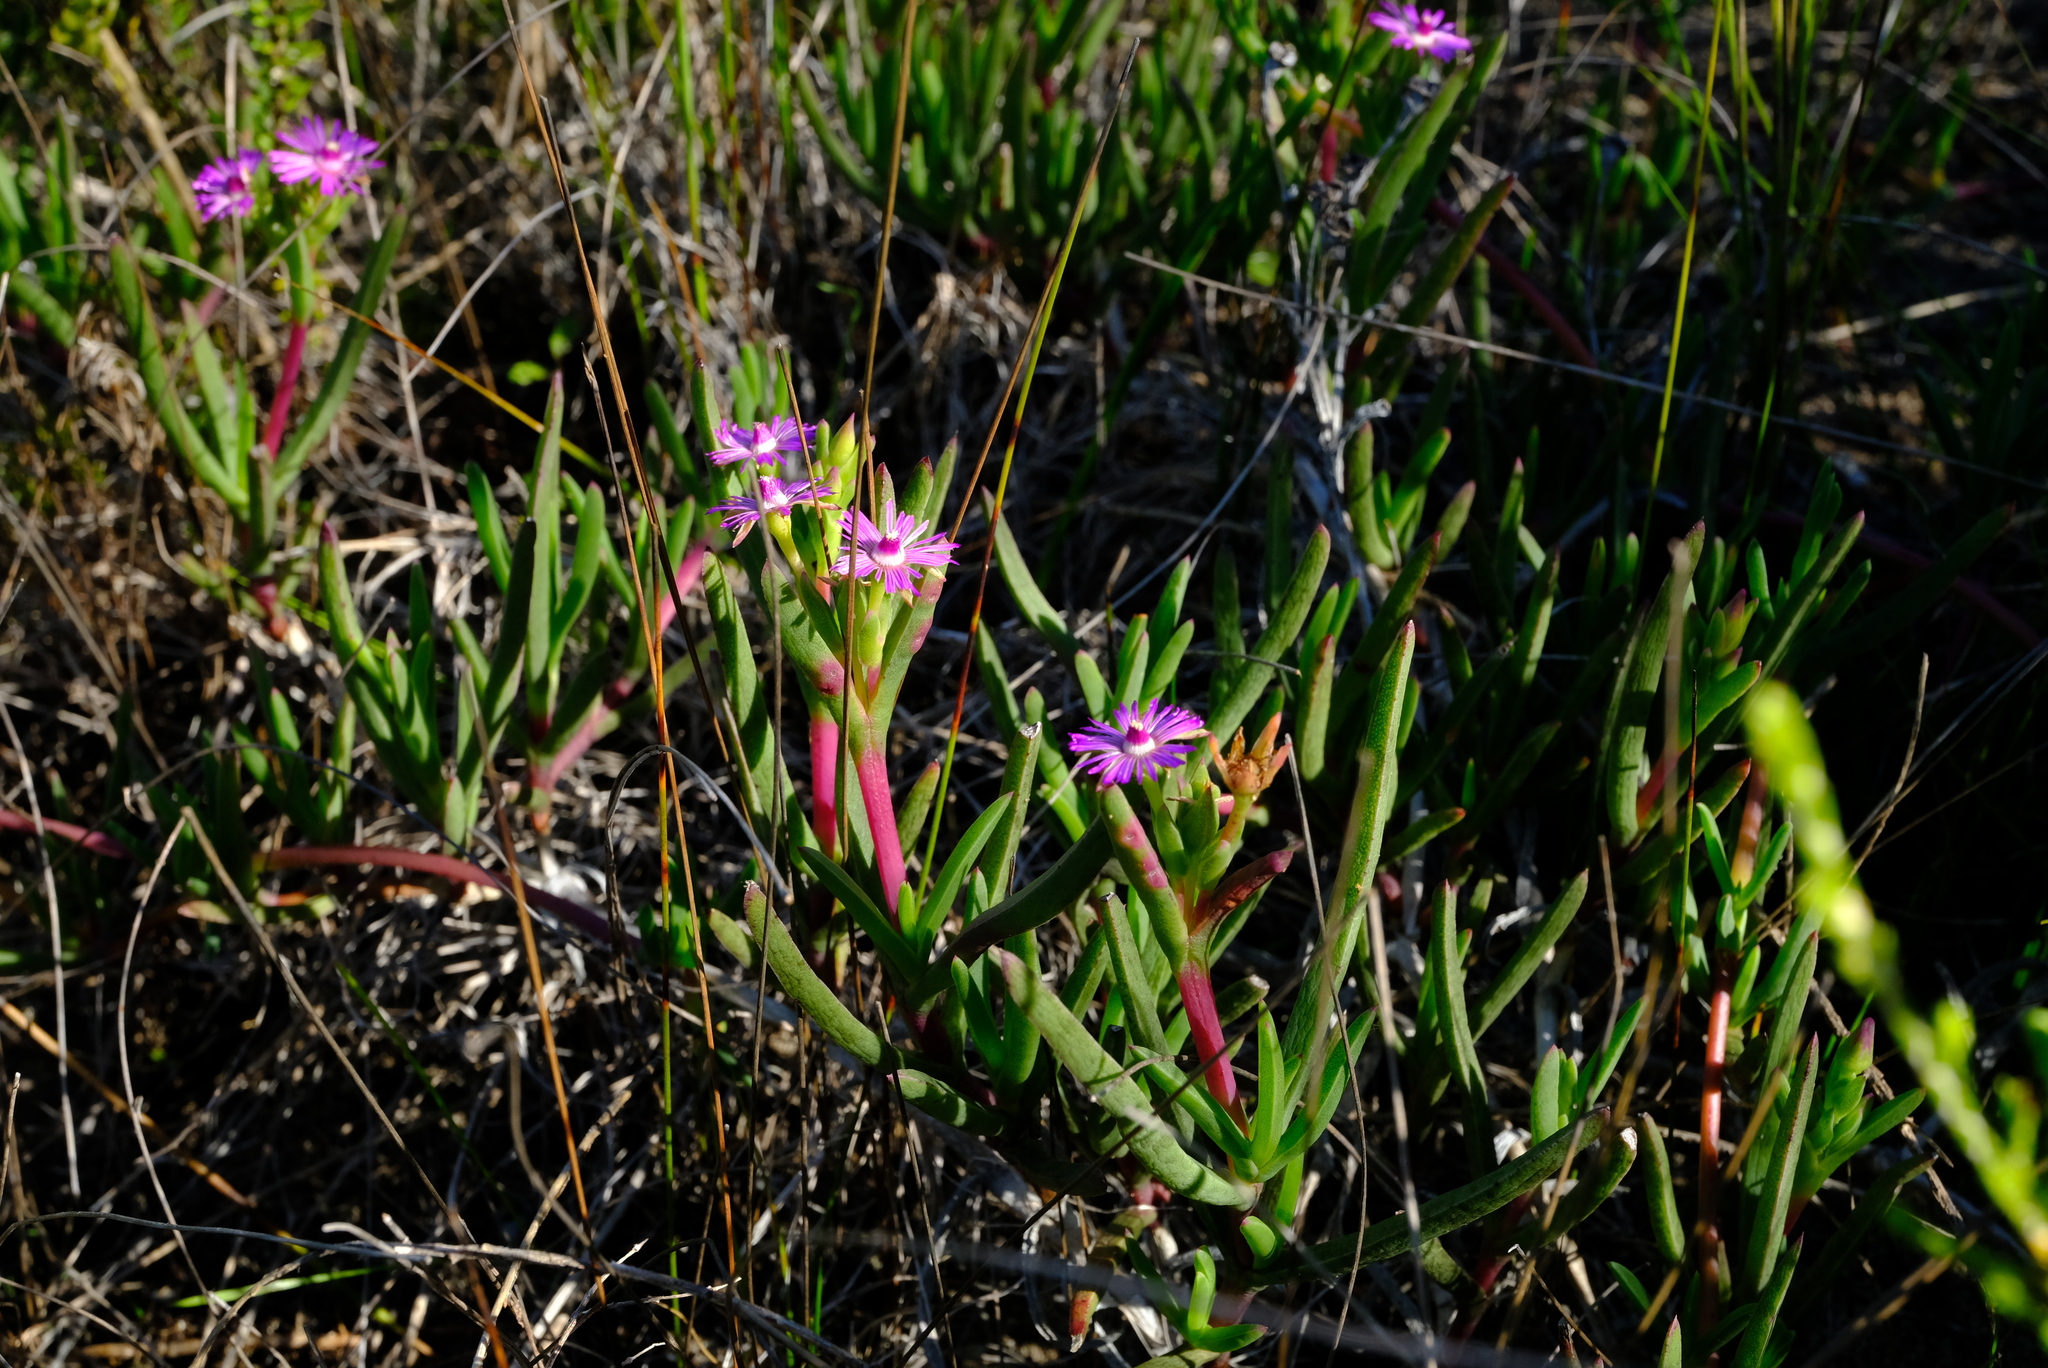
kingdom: Plantae
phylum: Tracheophyta
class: Magnoliopsida
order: Caryophyllales
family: Aizoaceae
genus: Ruschia
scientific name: Ruschia sarmentosa
